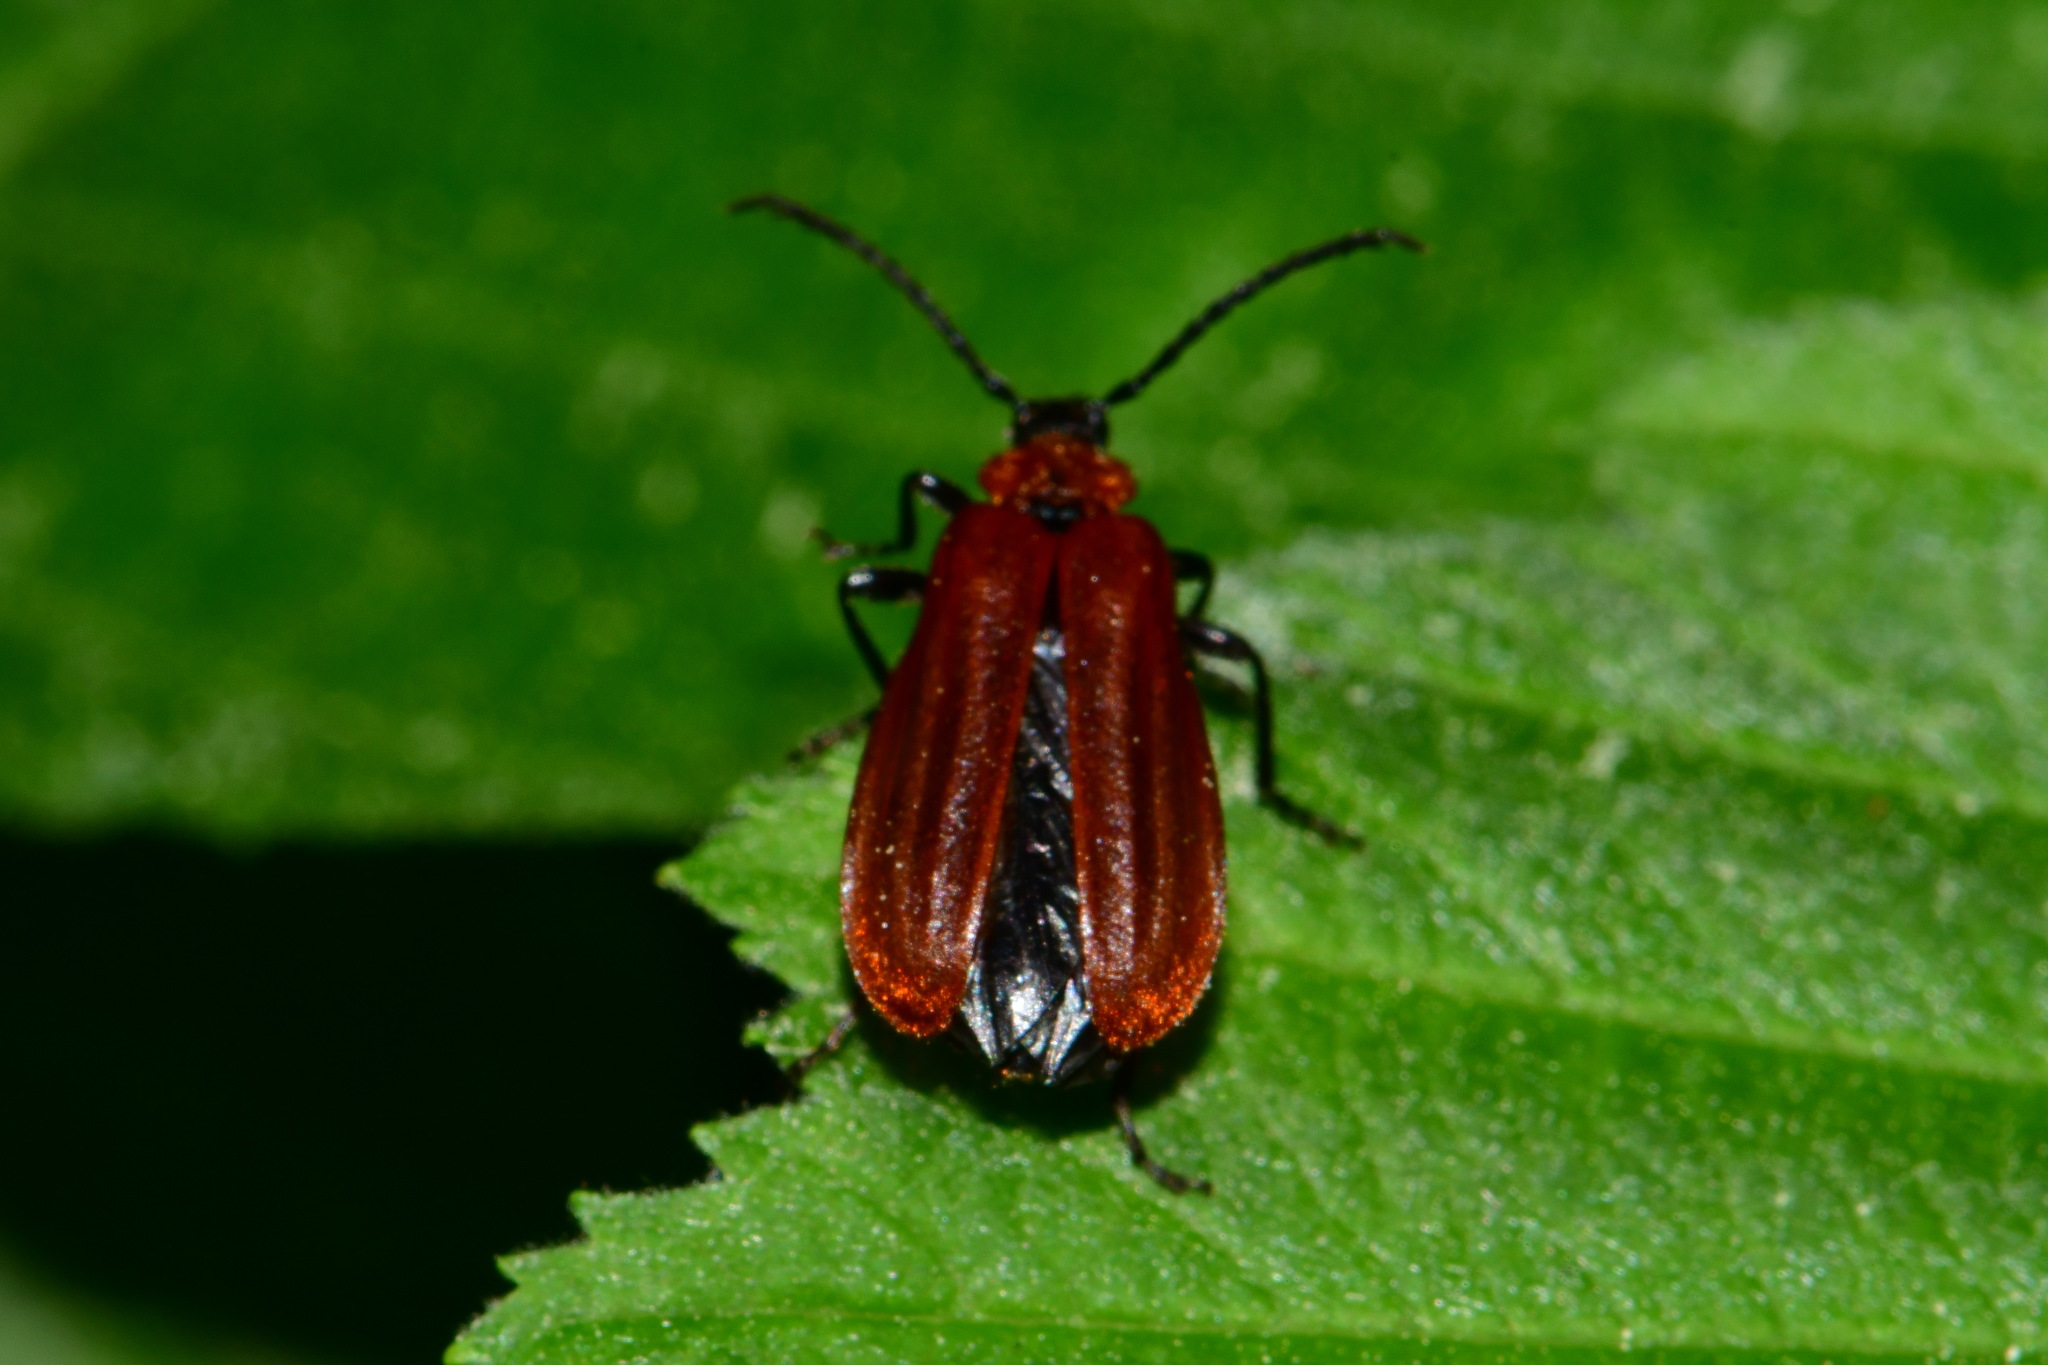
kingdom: Animalia
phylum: Arthropoda
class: Insecta
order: Coleoptera
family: Pyrochroidae
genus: Schizotus
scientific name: Schizotus pectinicornis
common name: Scarce cardinal beetle
